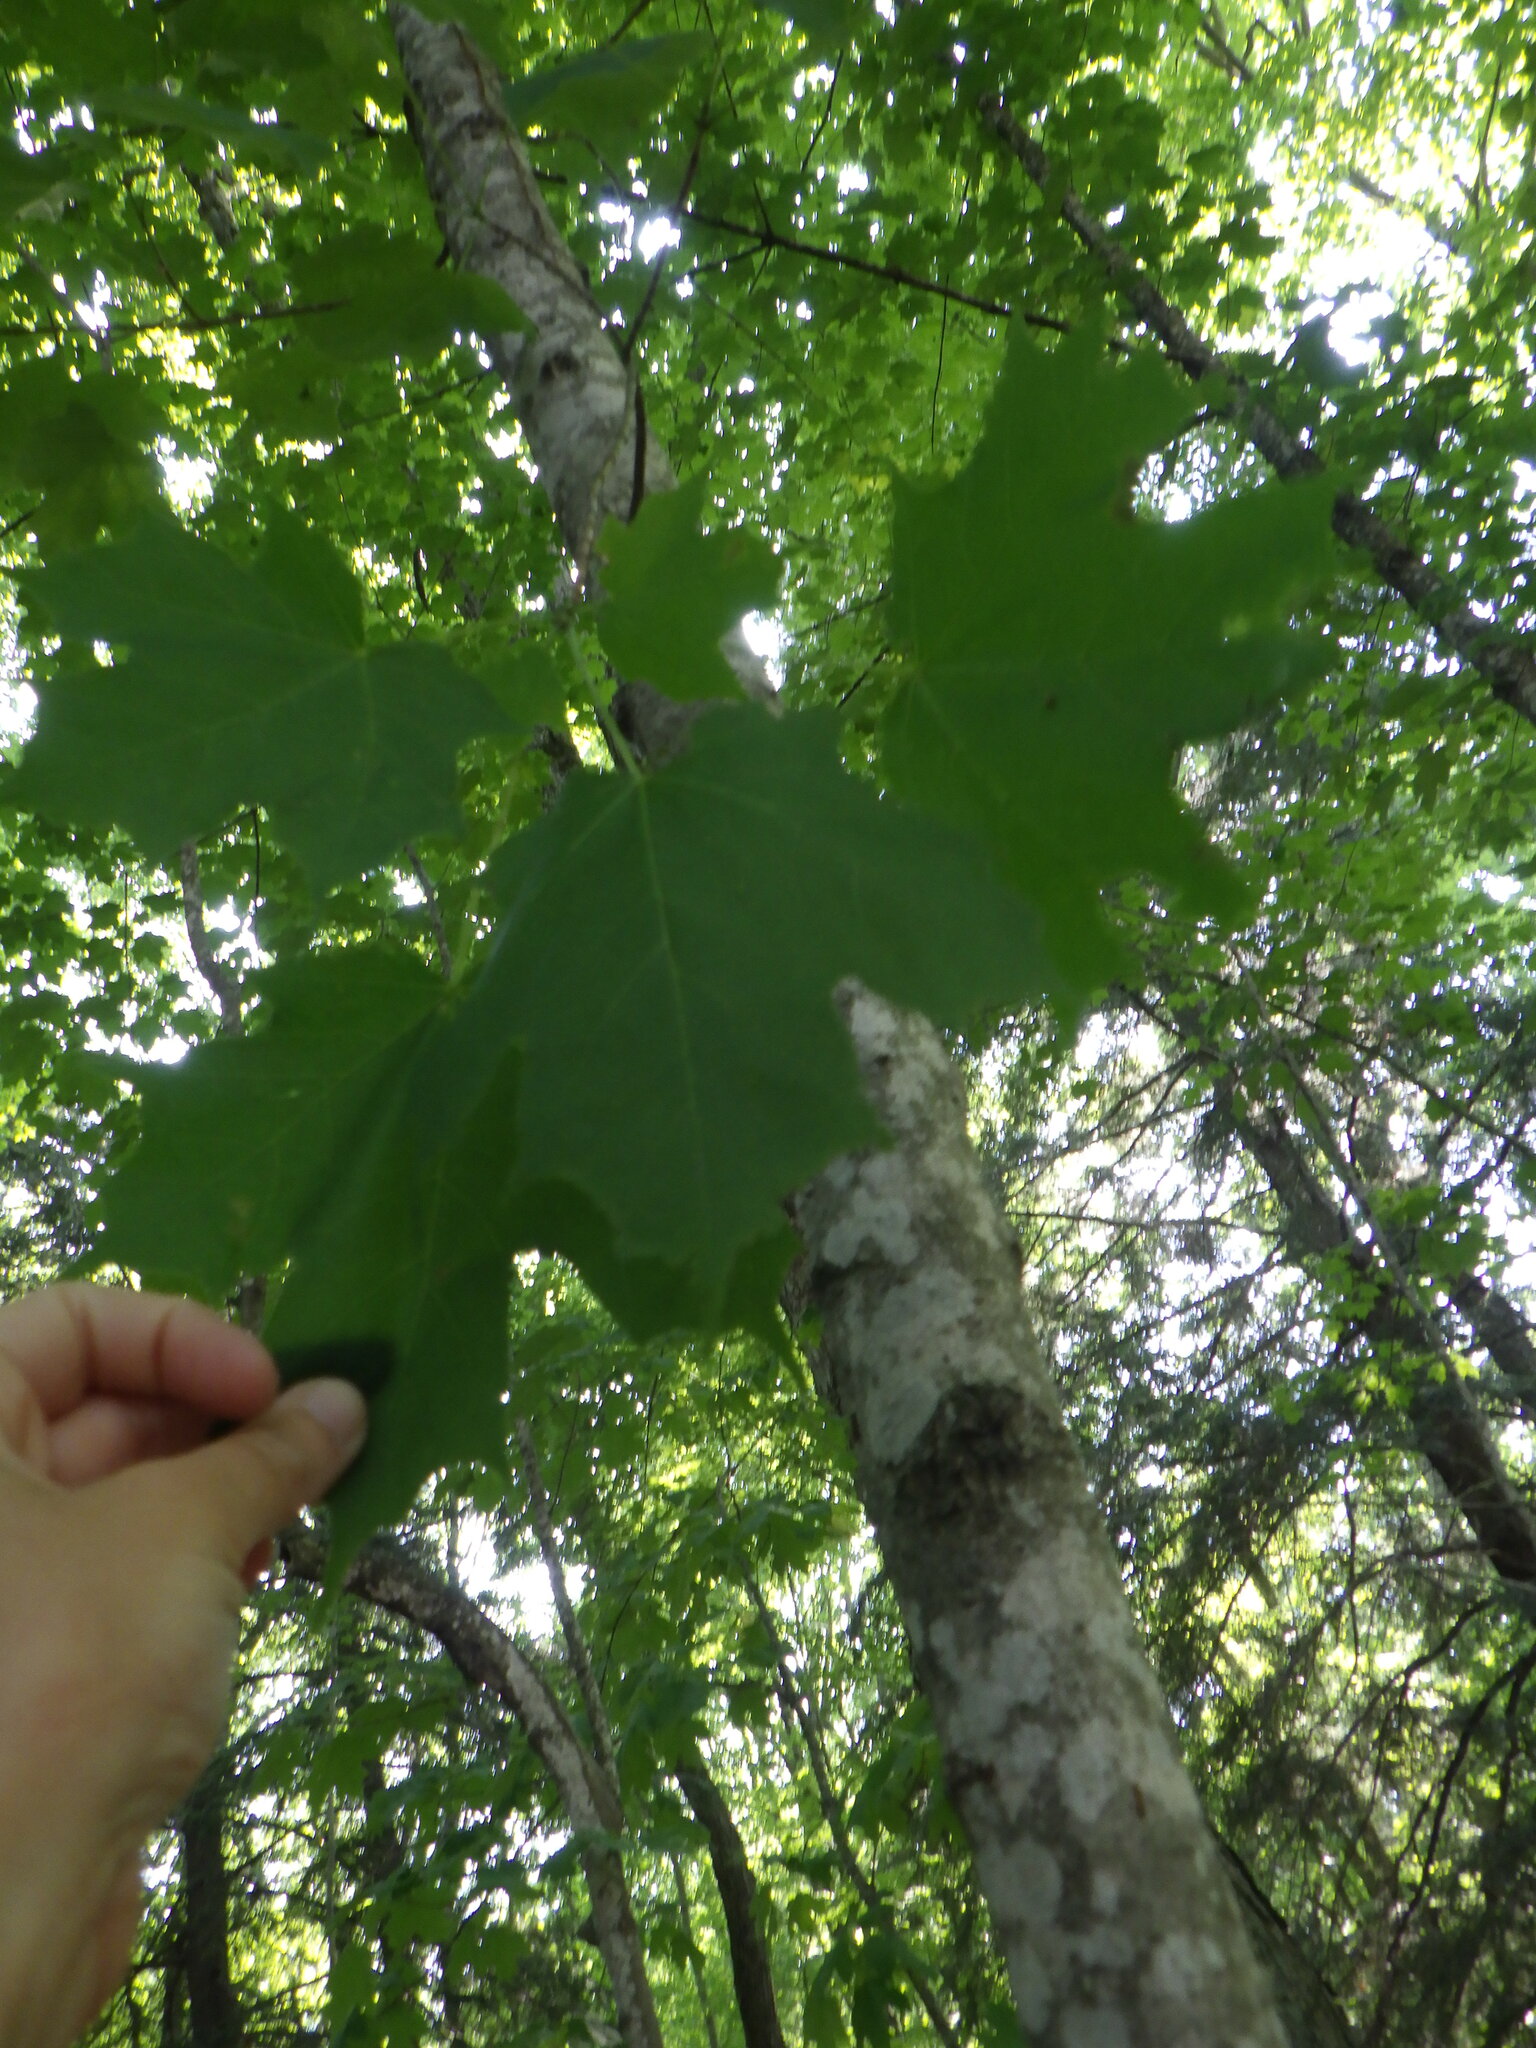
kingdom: Plantae
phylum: Tracheophyta
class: Magnoliopsida
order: Sapindales
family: Sapindaceae
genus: Acer
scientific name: Acer saccharum
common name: Sugar maple
